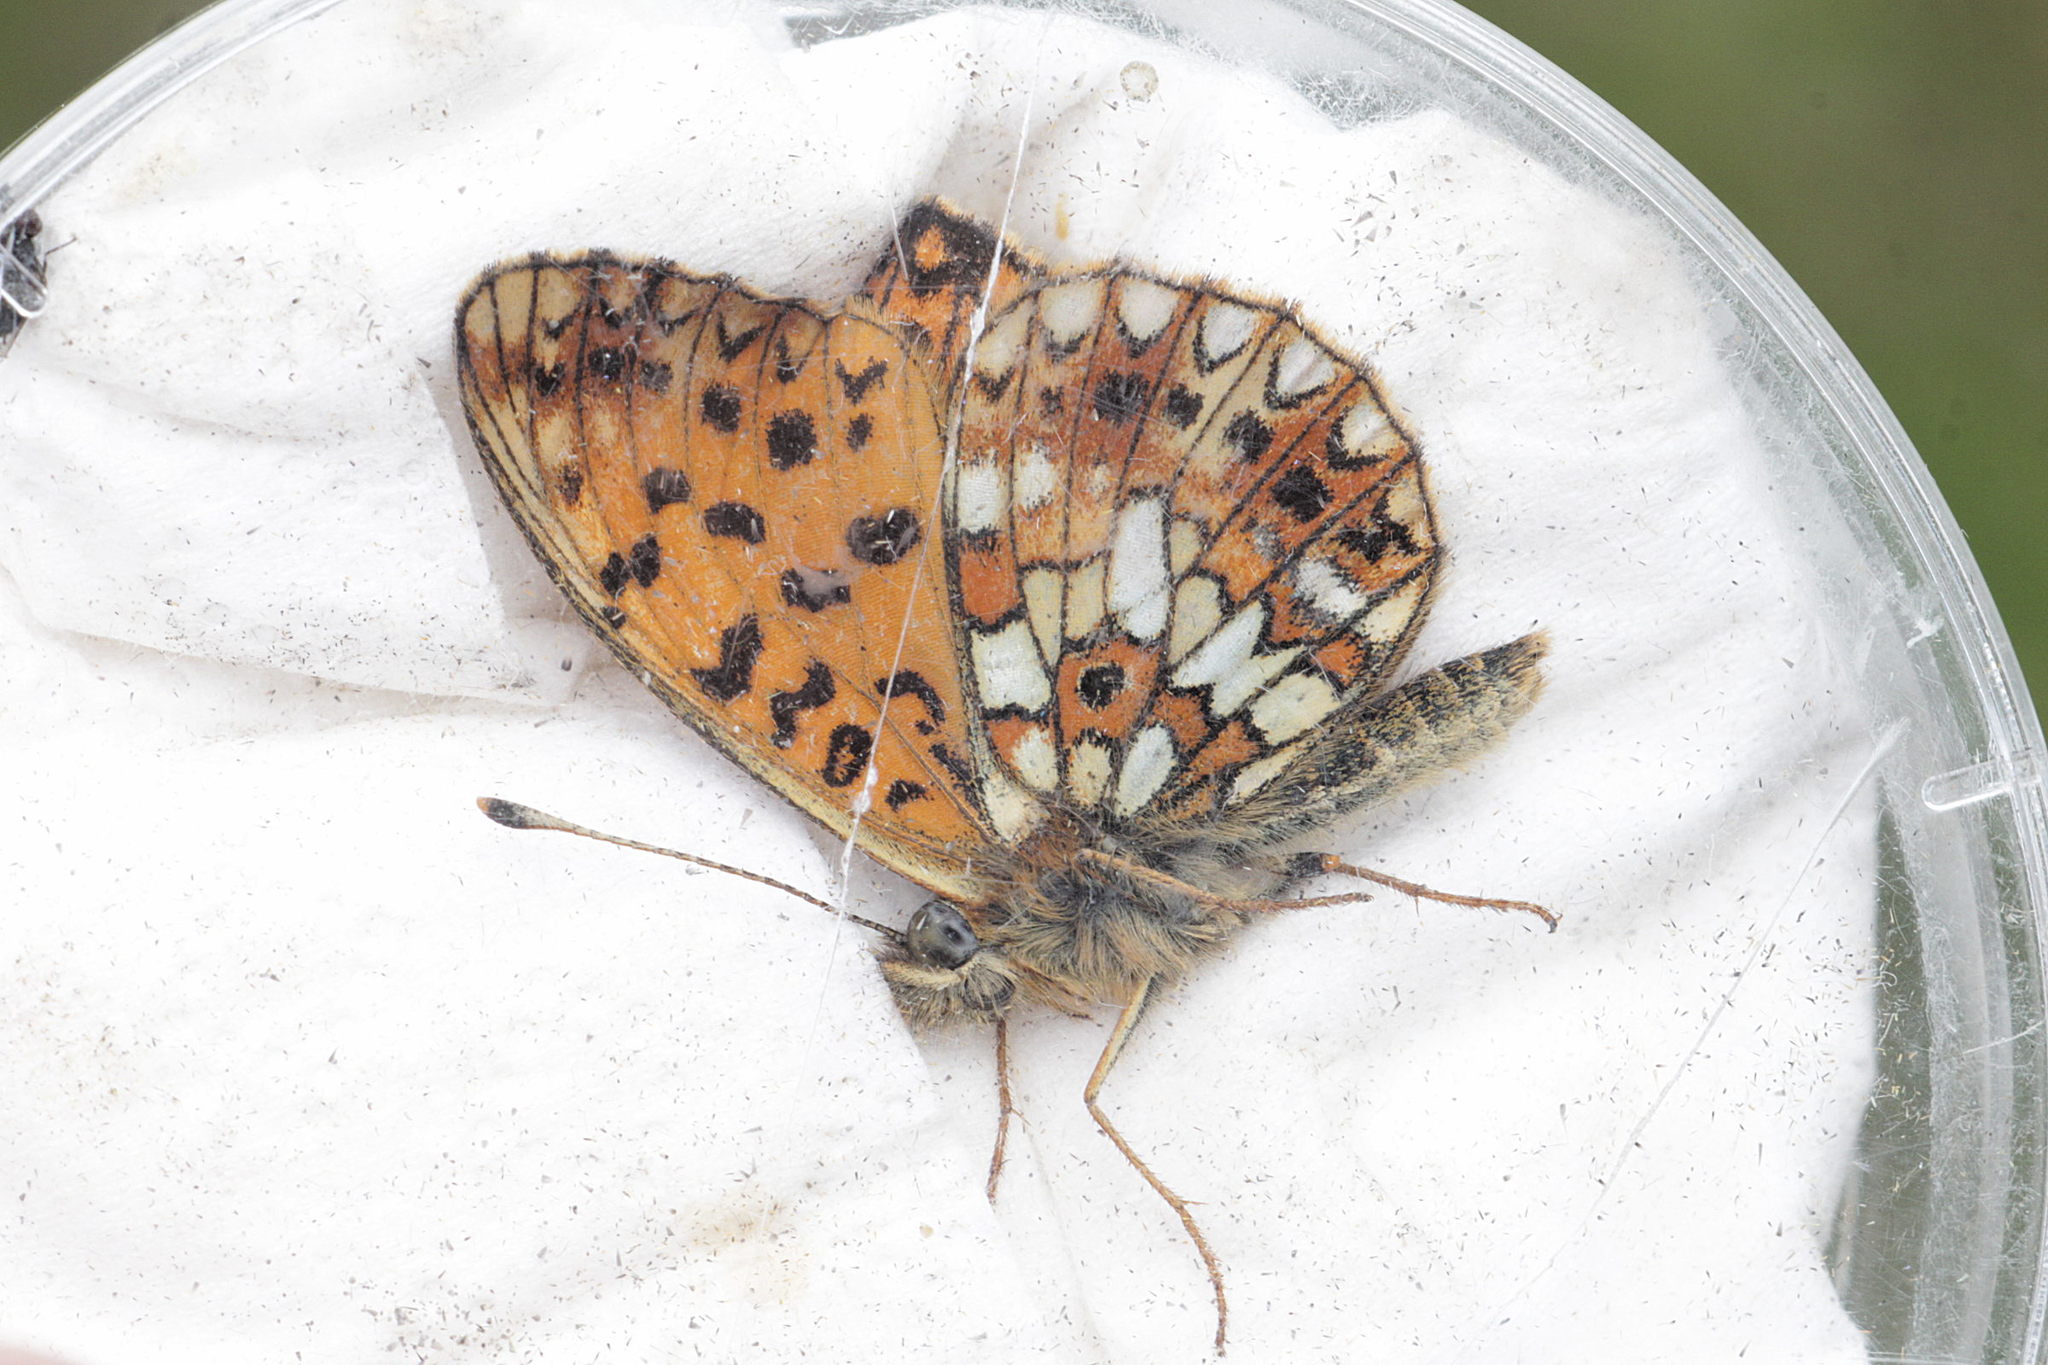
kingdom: Animalia
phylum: Arthropoda
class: Insecta
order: Lepidoptera
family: Nymphalidae
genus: Boloria
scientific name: Boloria selene
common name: Small pearl-bordered fritillary
